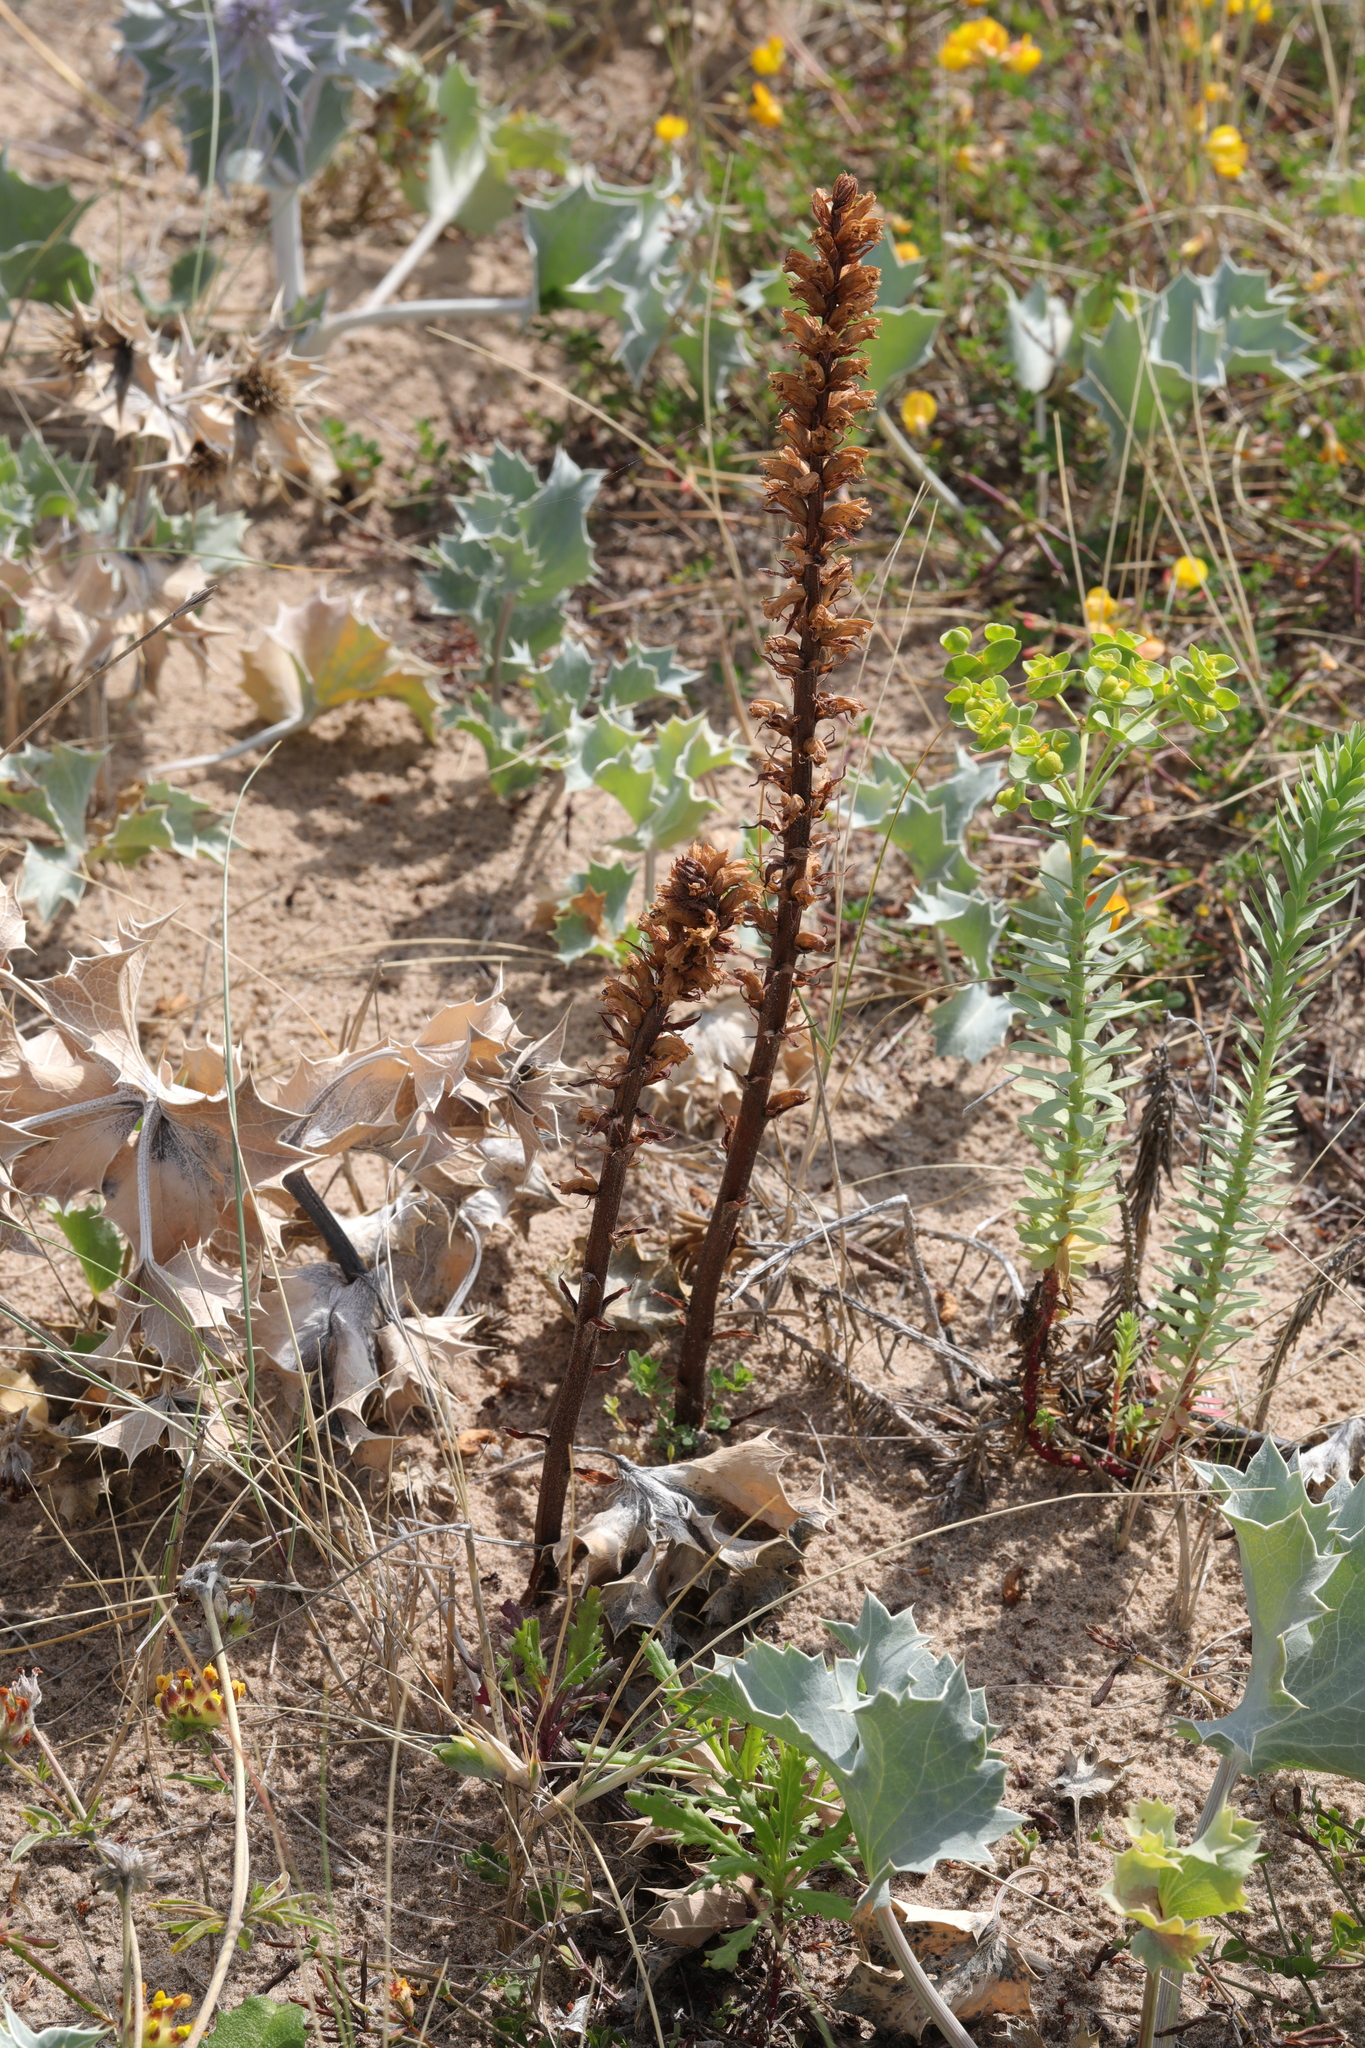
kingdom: Plantae
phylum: Tracheophyta
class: Magnoliopsida
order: Lamiales
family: Orobanchaceae
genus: Orobanche
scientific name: Orobanche minor
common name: Common broomrape
